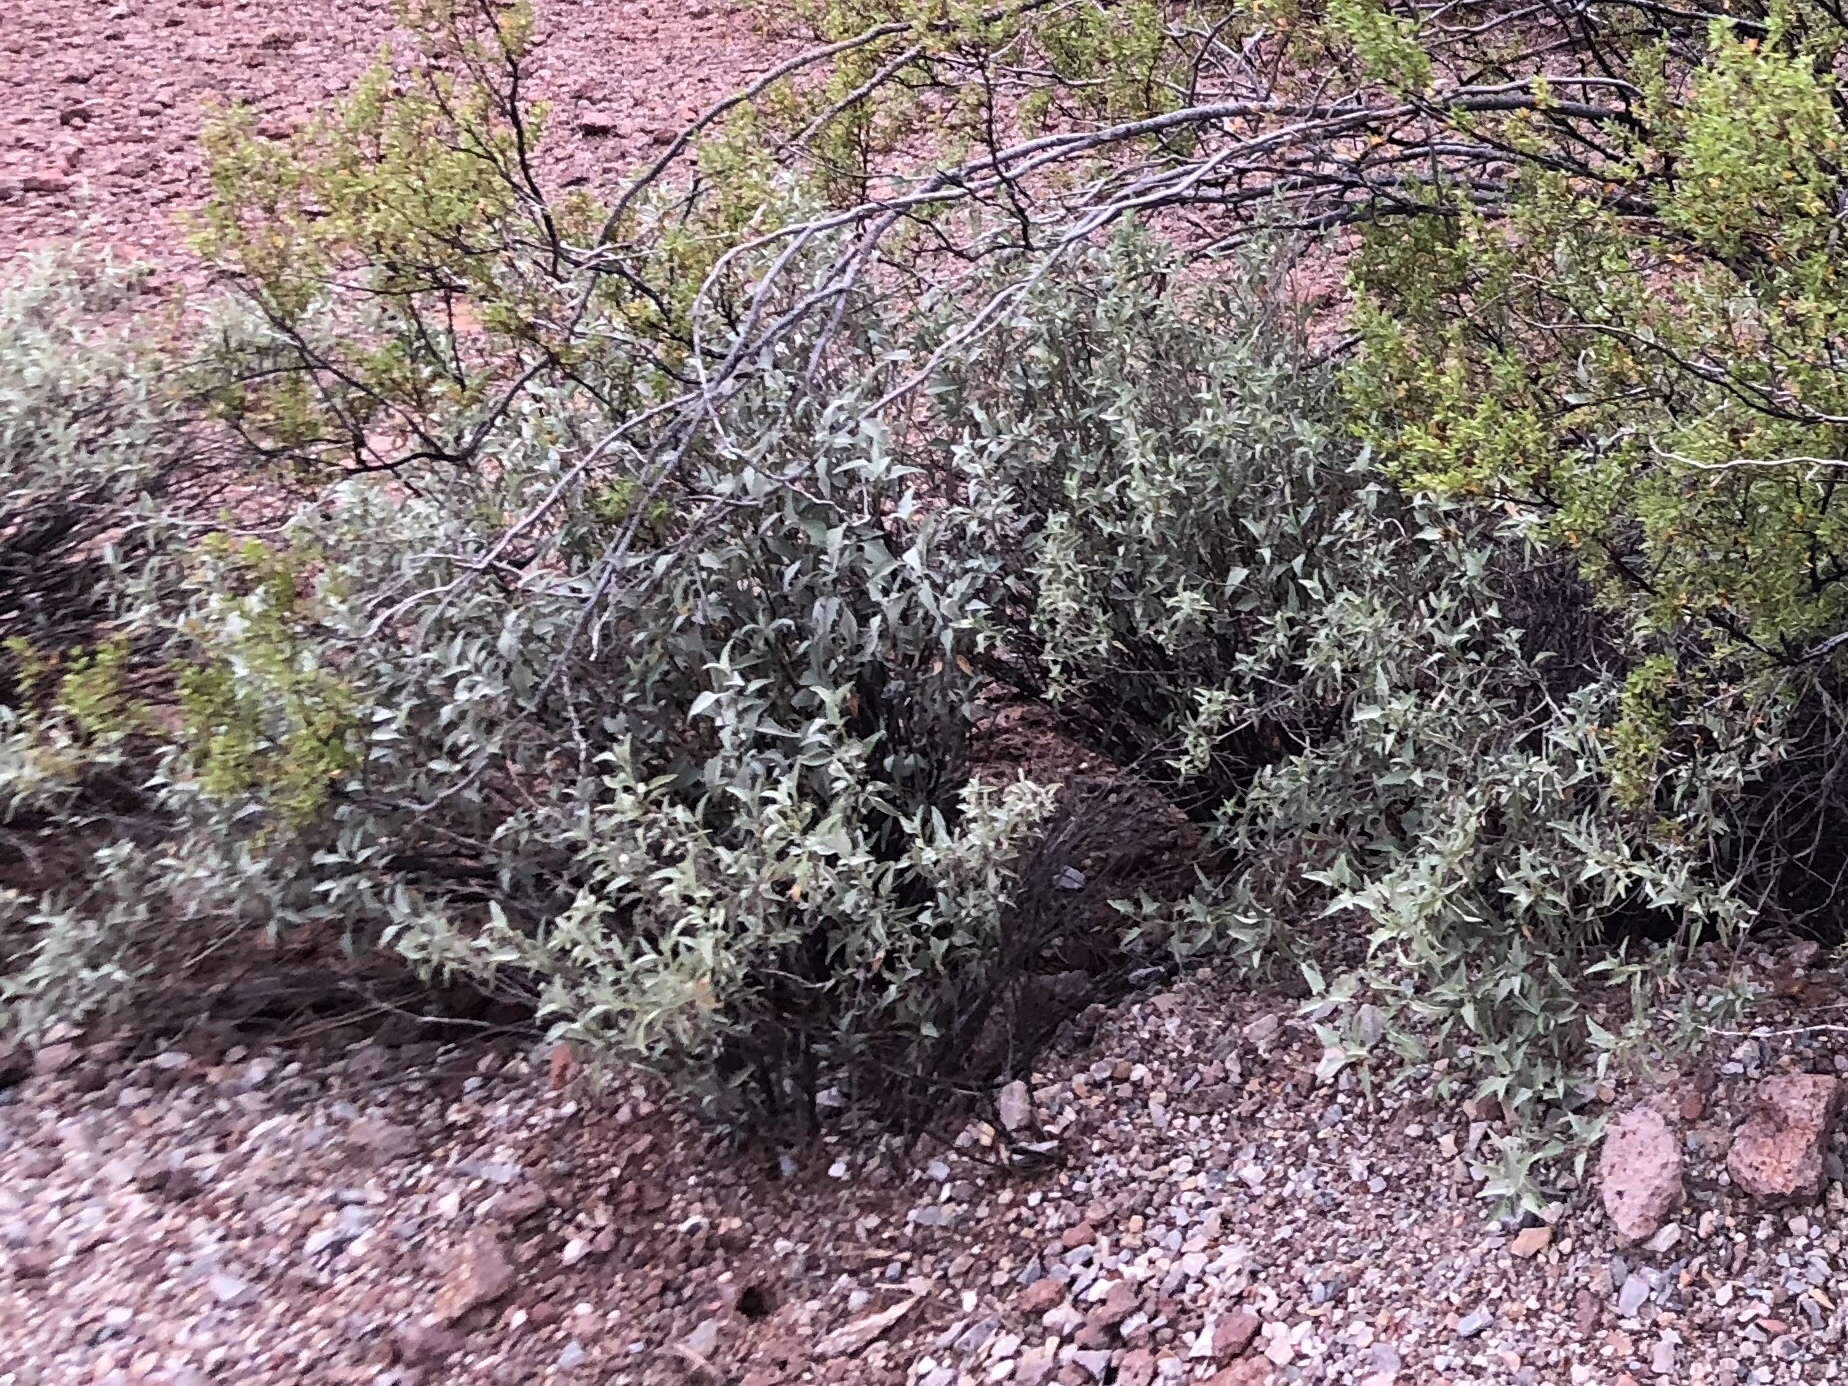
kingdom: Plantae
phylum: Tracheophyta
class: Magnoliopsida
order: Asterales
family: Asteraceae
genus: Ambrosia
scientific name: Ambrosia deltoidea
